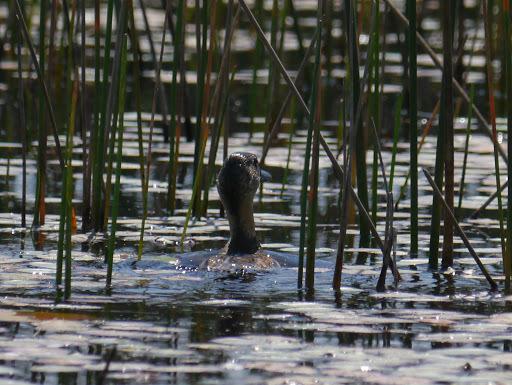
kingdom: Animalia
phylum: Chordata
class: Aves
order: Anseriformes
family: Anatidae
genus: Thalassornis
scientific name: Thalassornis leuconotus
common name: White-backed duck
